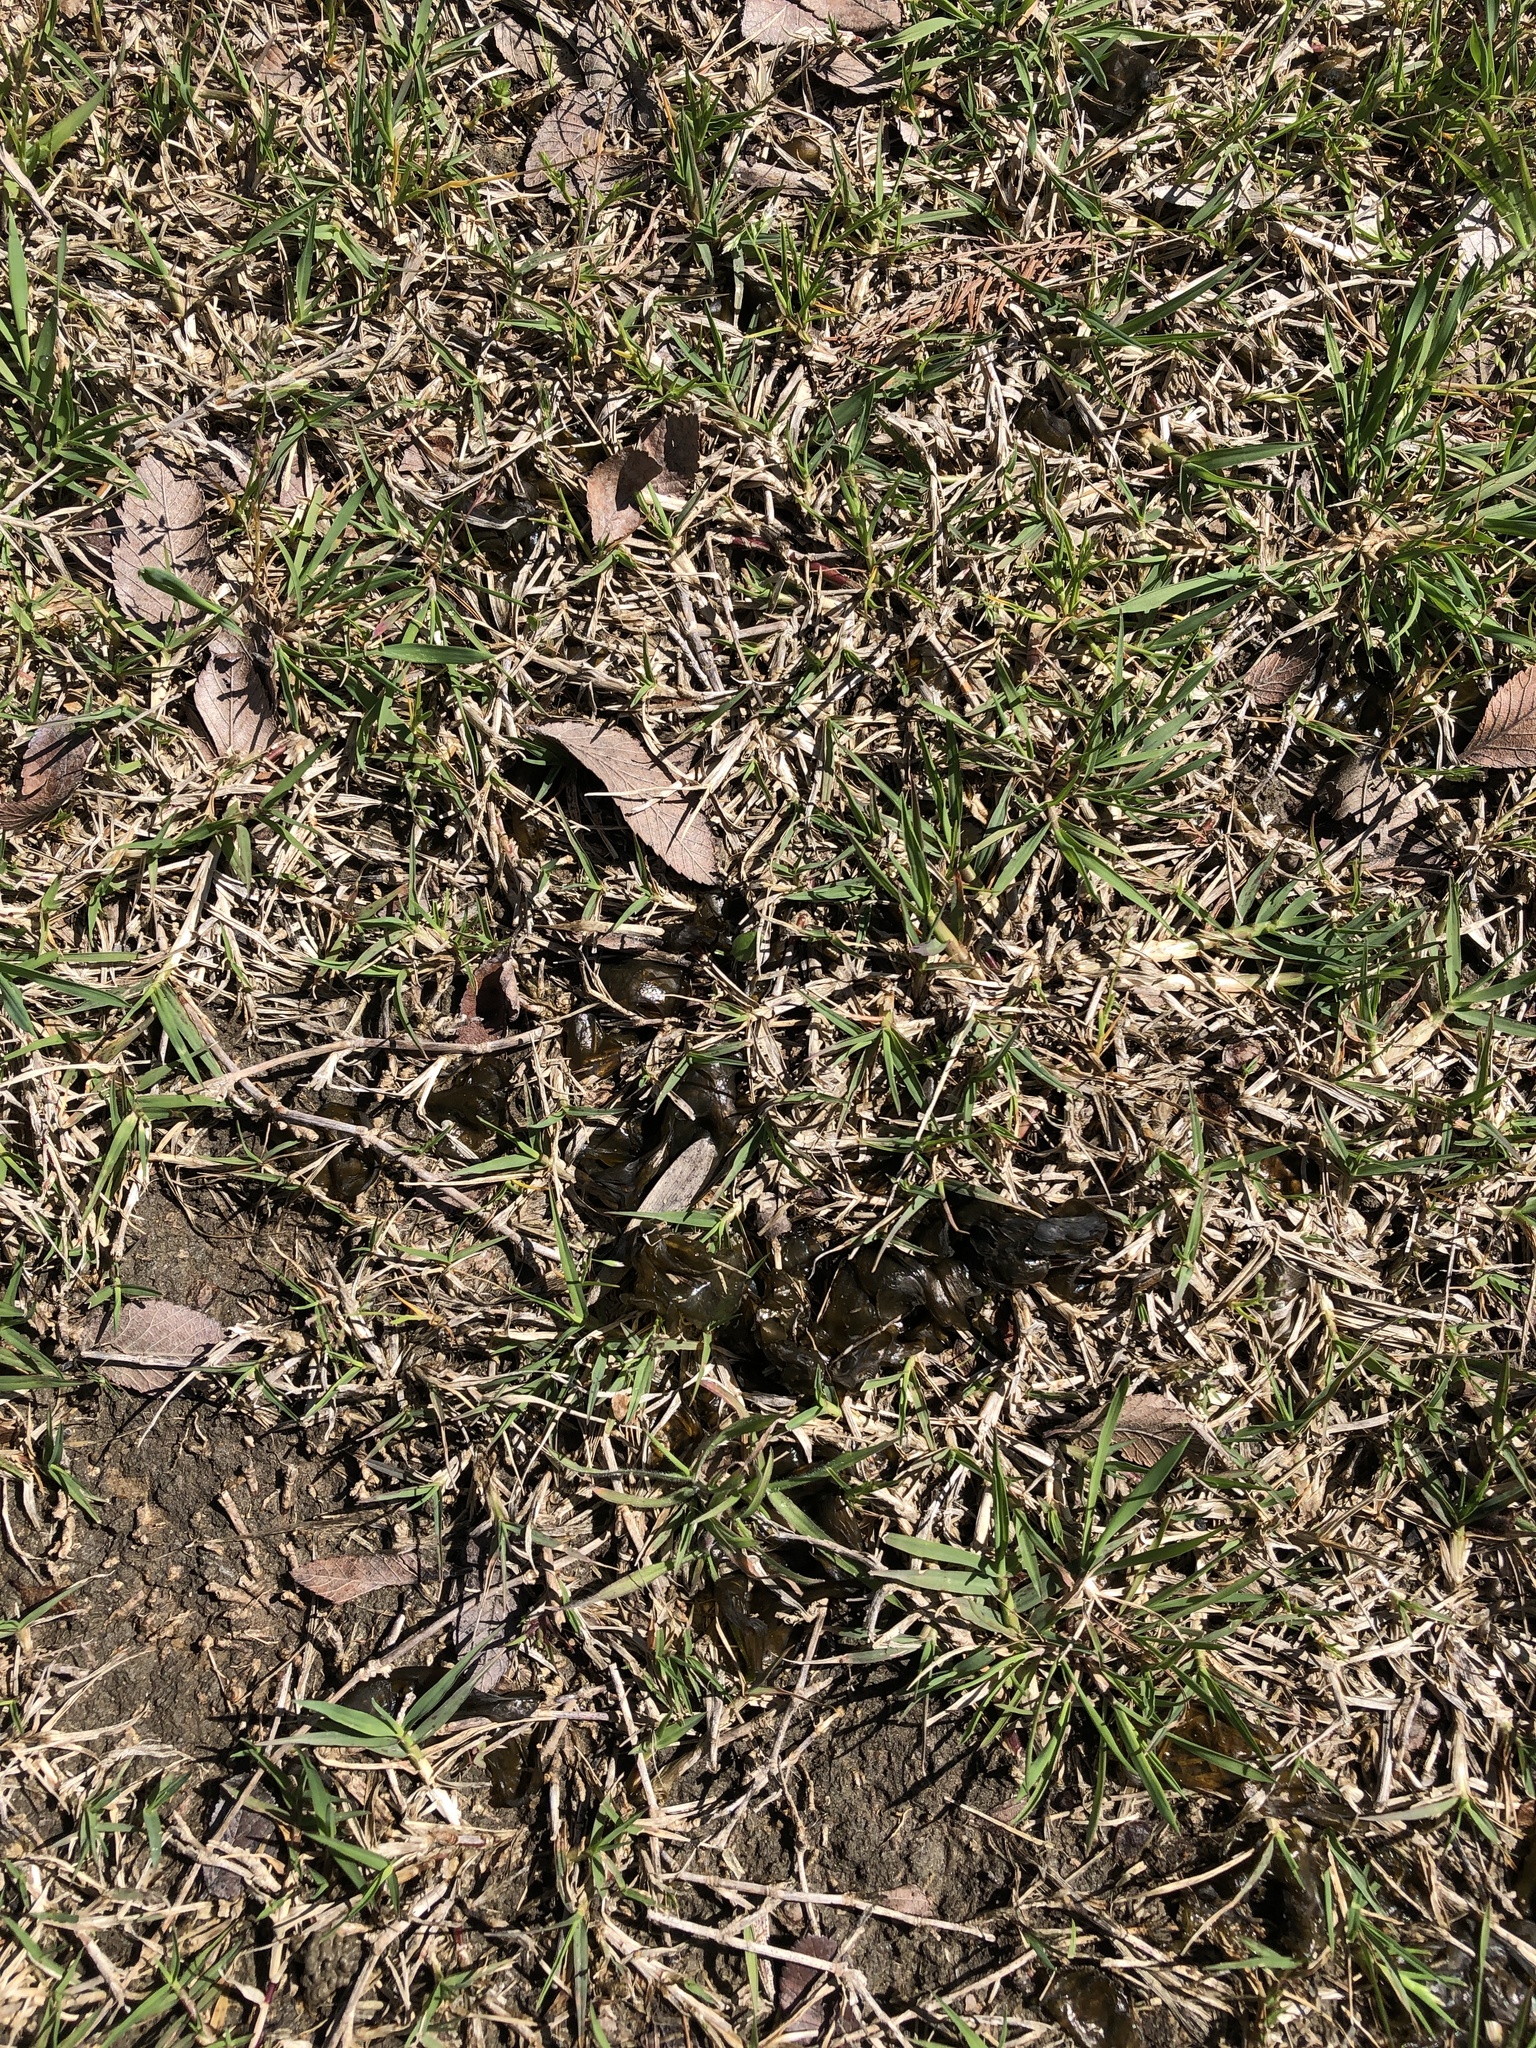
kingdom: Bacteria
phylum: Cyanobacteria
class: Cyanobacteriia
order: Cyanobacteriales
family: Nostocaceae
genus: Nostoc
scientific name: Nostoc commune
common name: Star jelly
